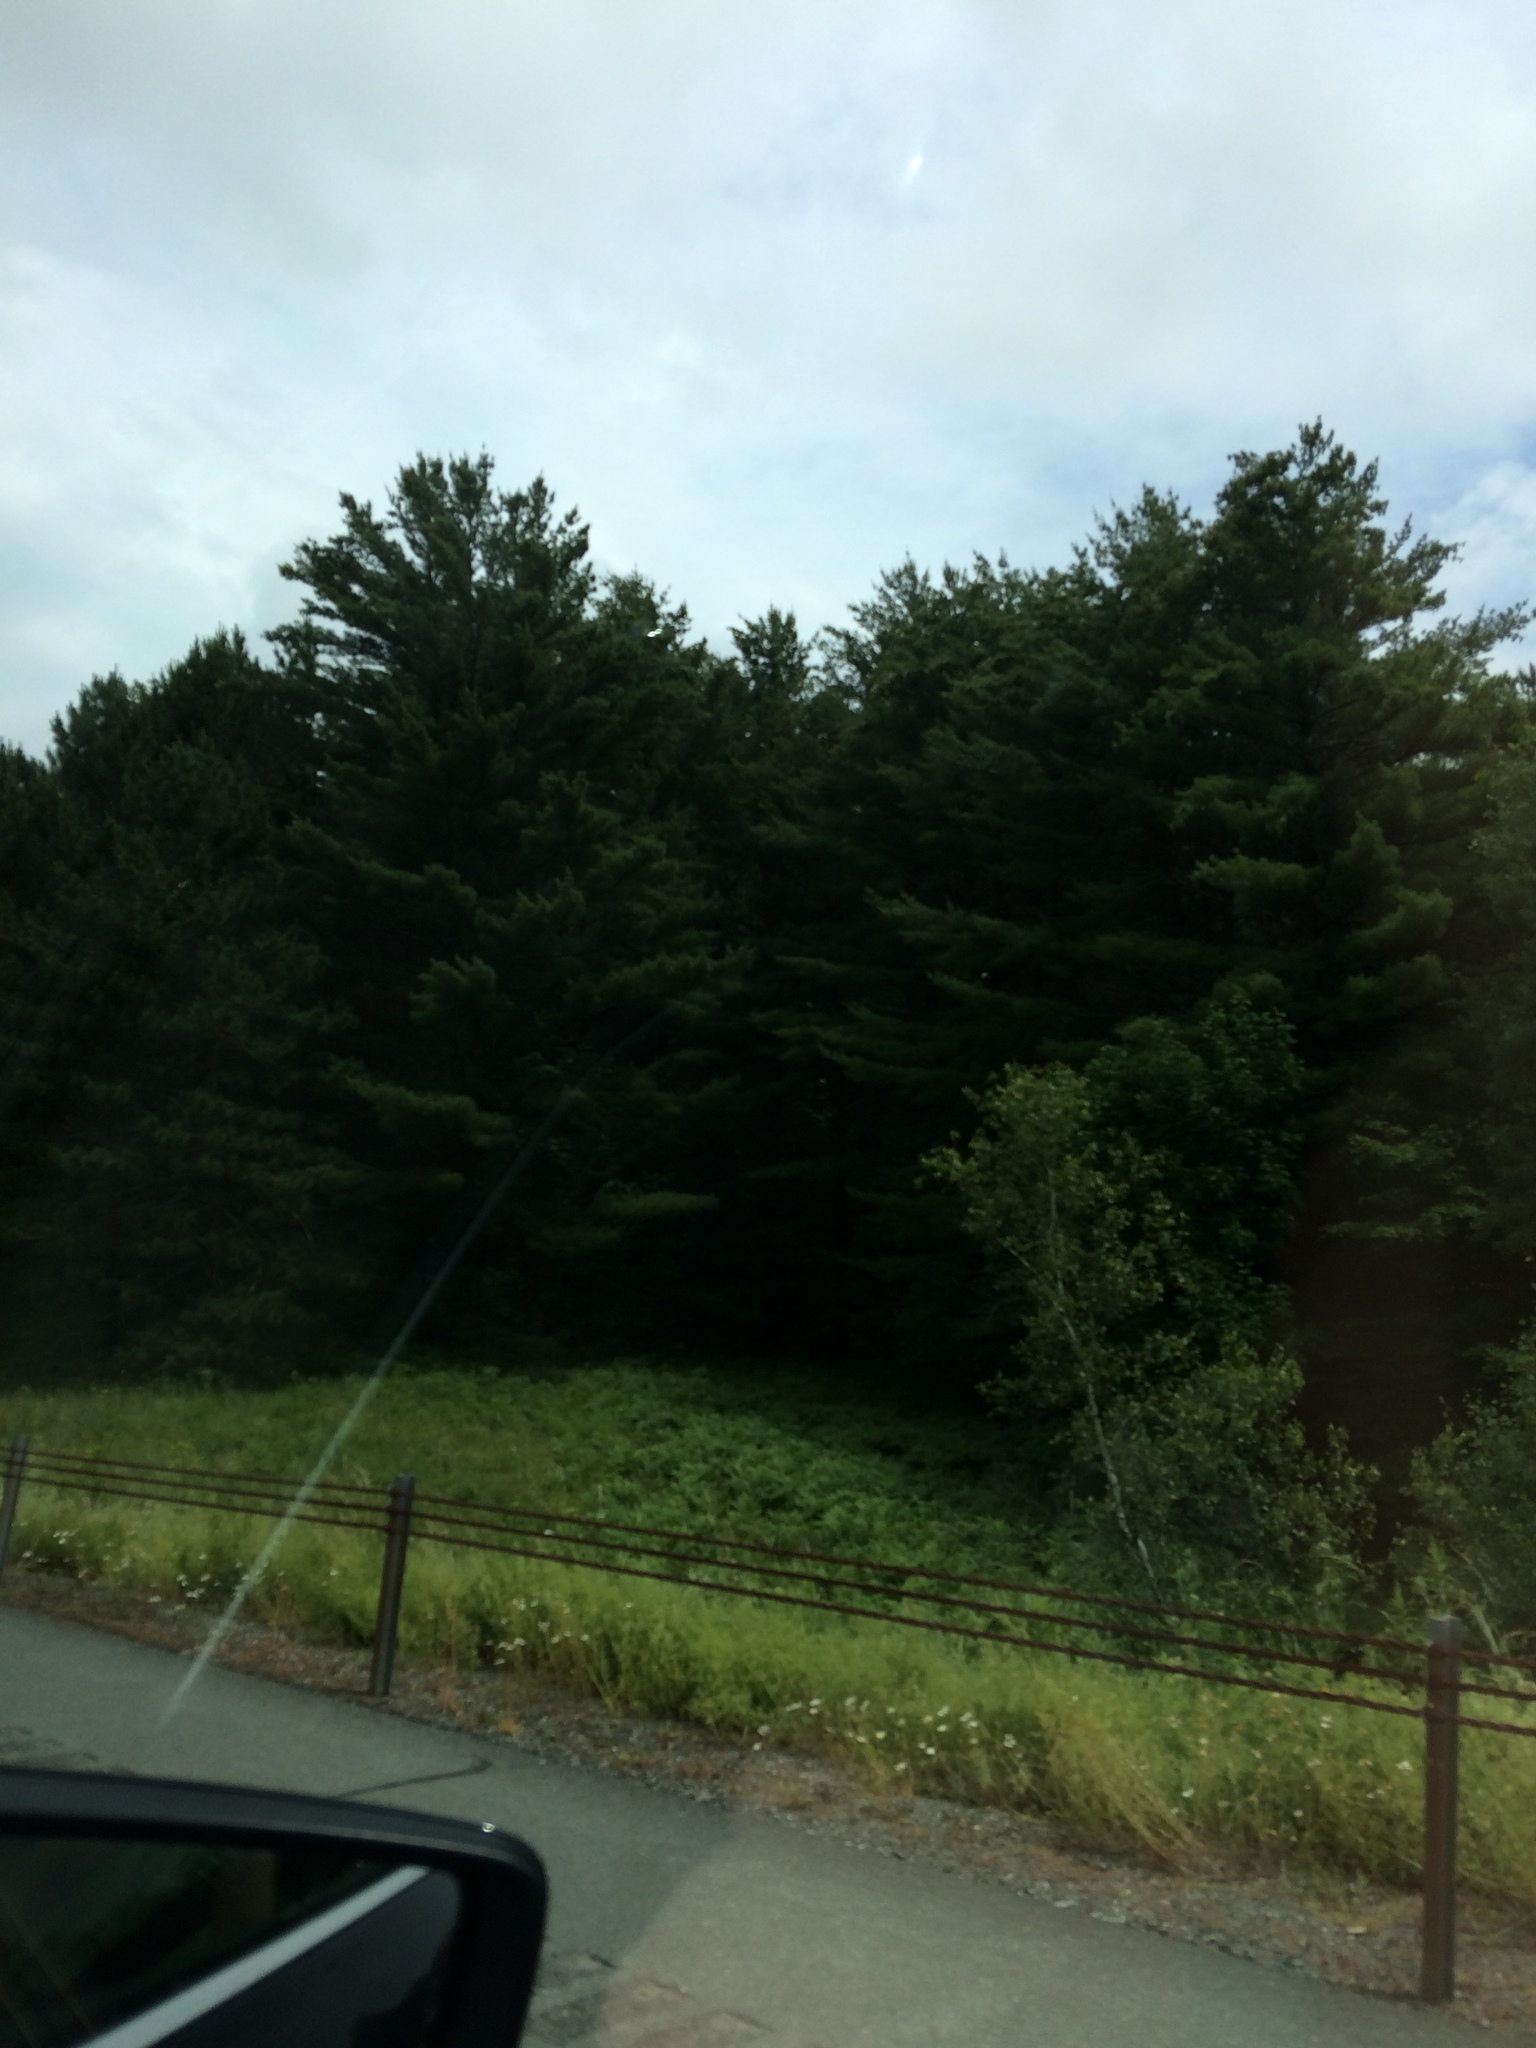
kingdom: Plantae
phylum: Tracheophyta
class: Pinopsida
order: Pinales
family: Pinaceae
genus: Pinus
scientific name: Pinus strobus
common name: Weymouth pine
